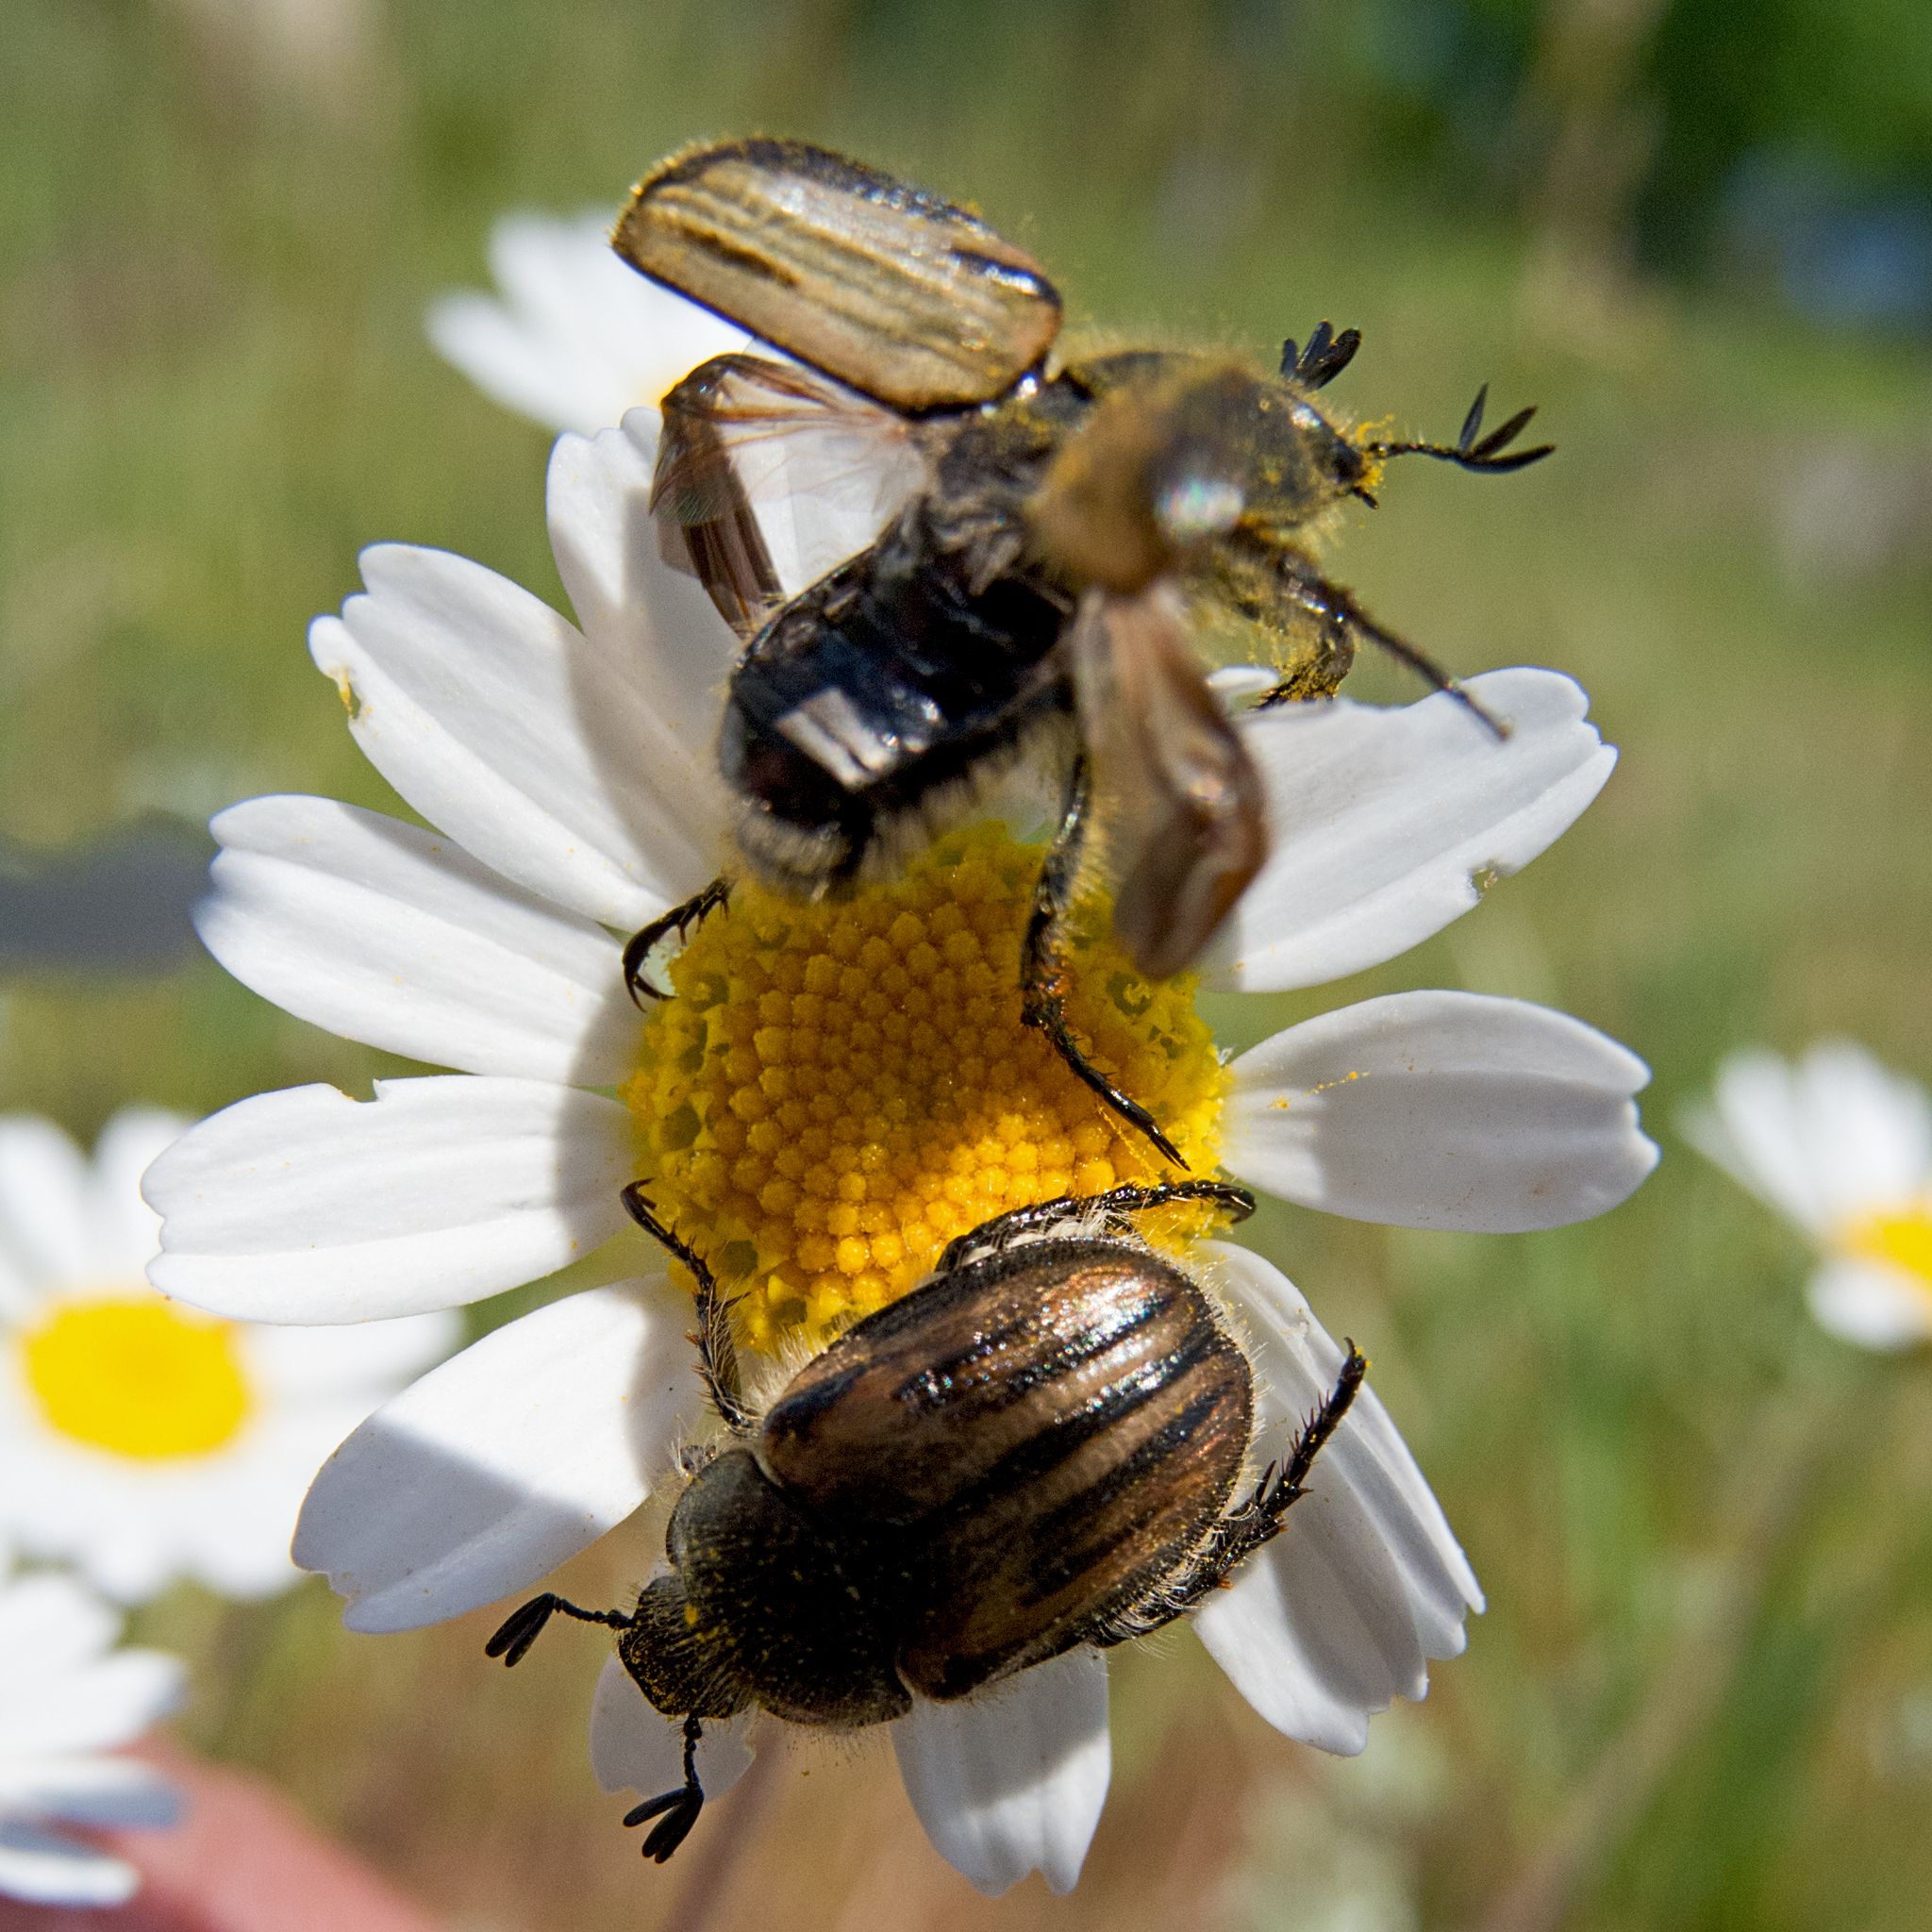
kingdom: Animalia
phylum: Arthropoda
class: Insecta
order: Coleoptera
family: Scarabaeidae
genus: Blitopertha
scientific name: Blitopertha lineolata
